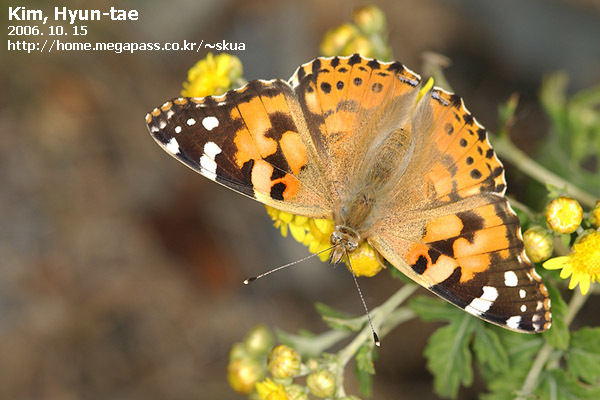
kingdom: Animalia
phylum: Arthropoda
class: Insecta
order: Lepidoptera
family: Nymphalidae
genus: Vanessa
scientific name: Vanessa cardui
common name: Painted lady
